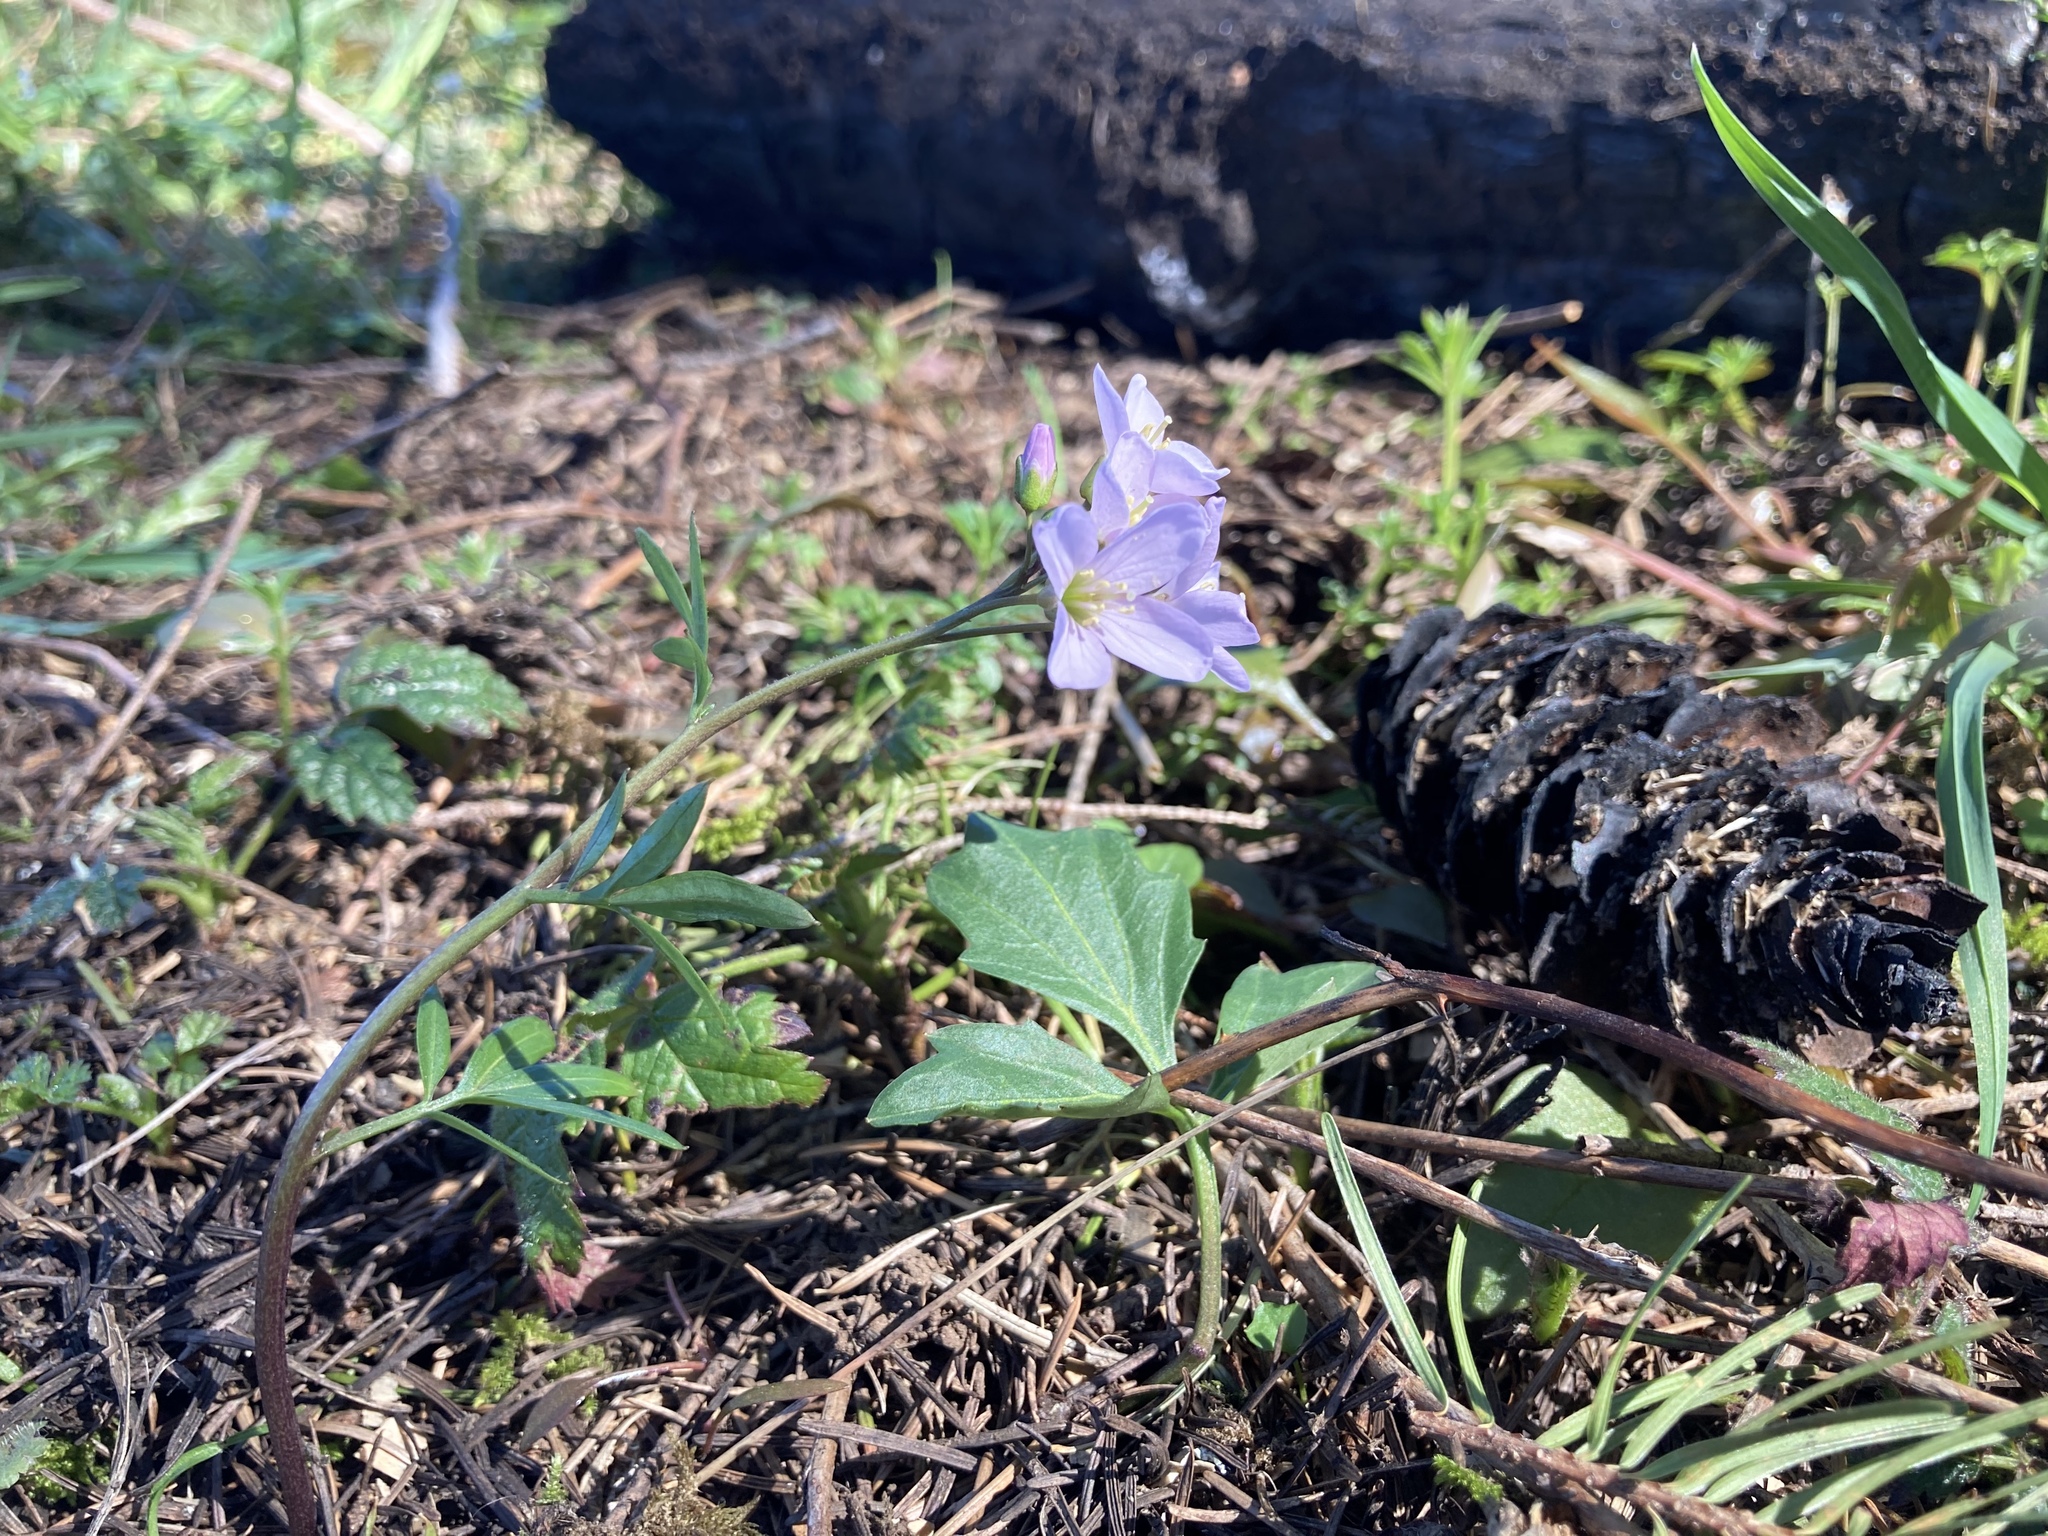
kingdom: Plantae
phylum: Tracheophyta
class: Magnoliopsida
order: Brassicales
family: Brassicaceae
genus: Cardamine
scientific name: Cardamine nuttallii
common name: Nuttall's toothwort
